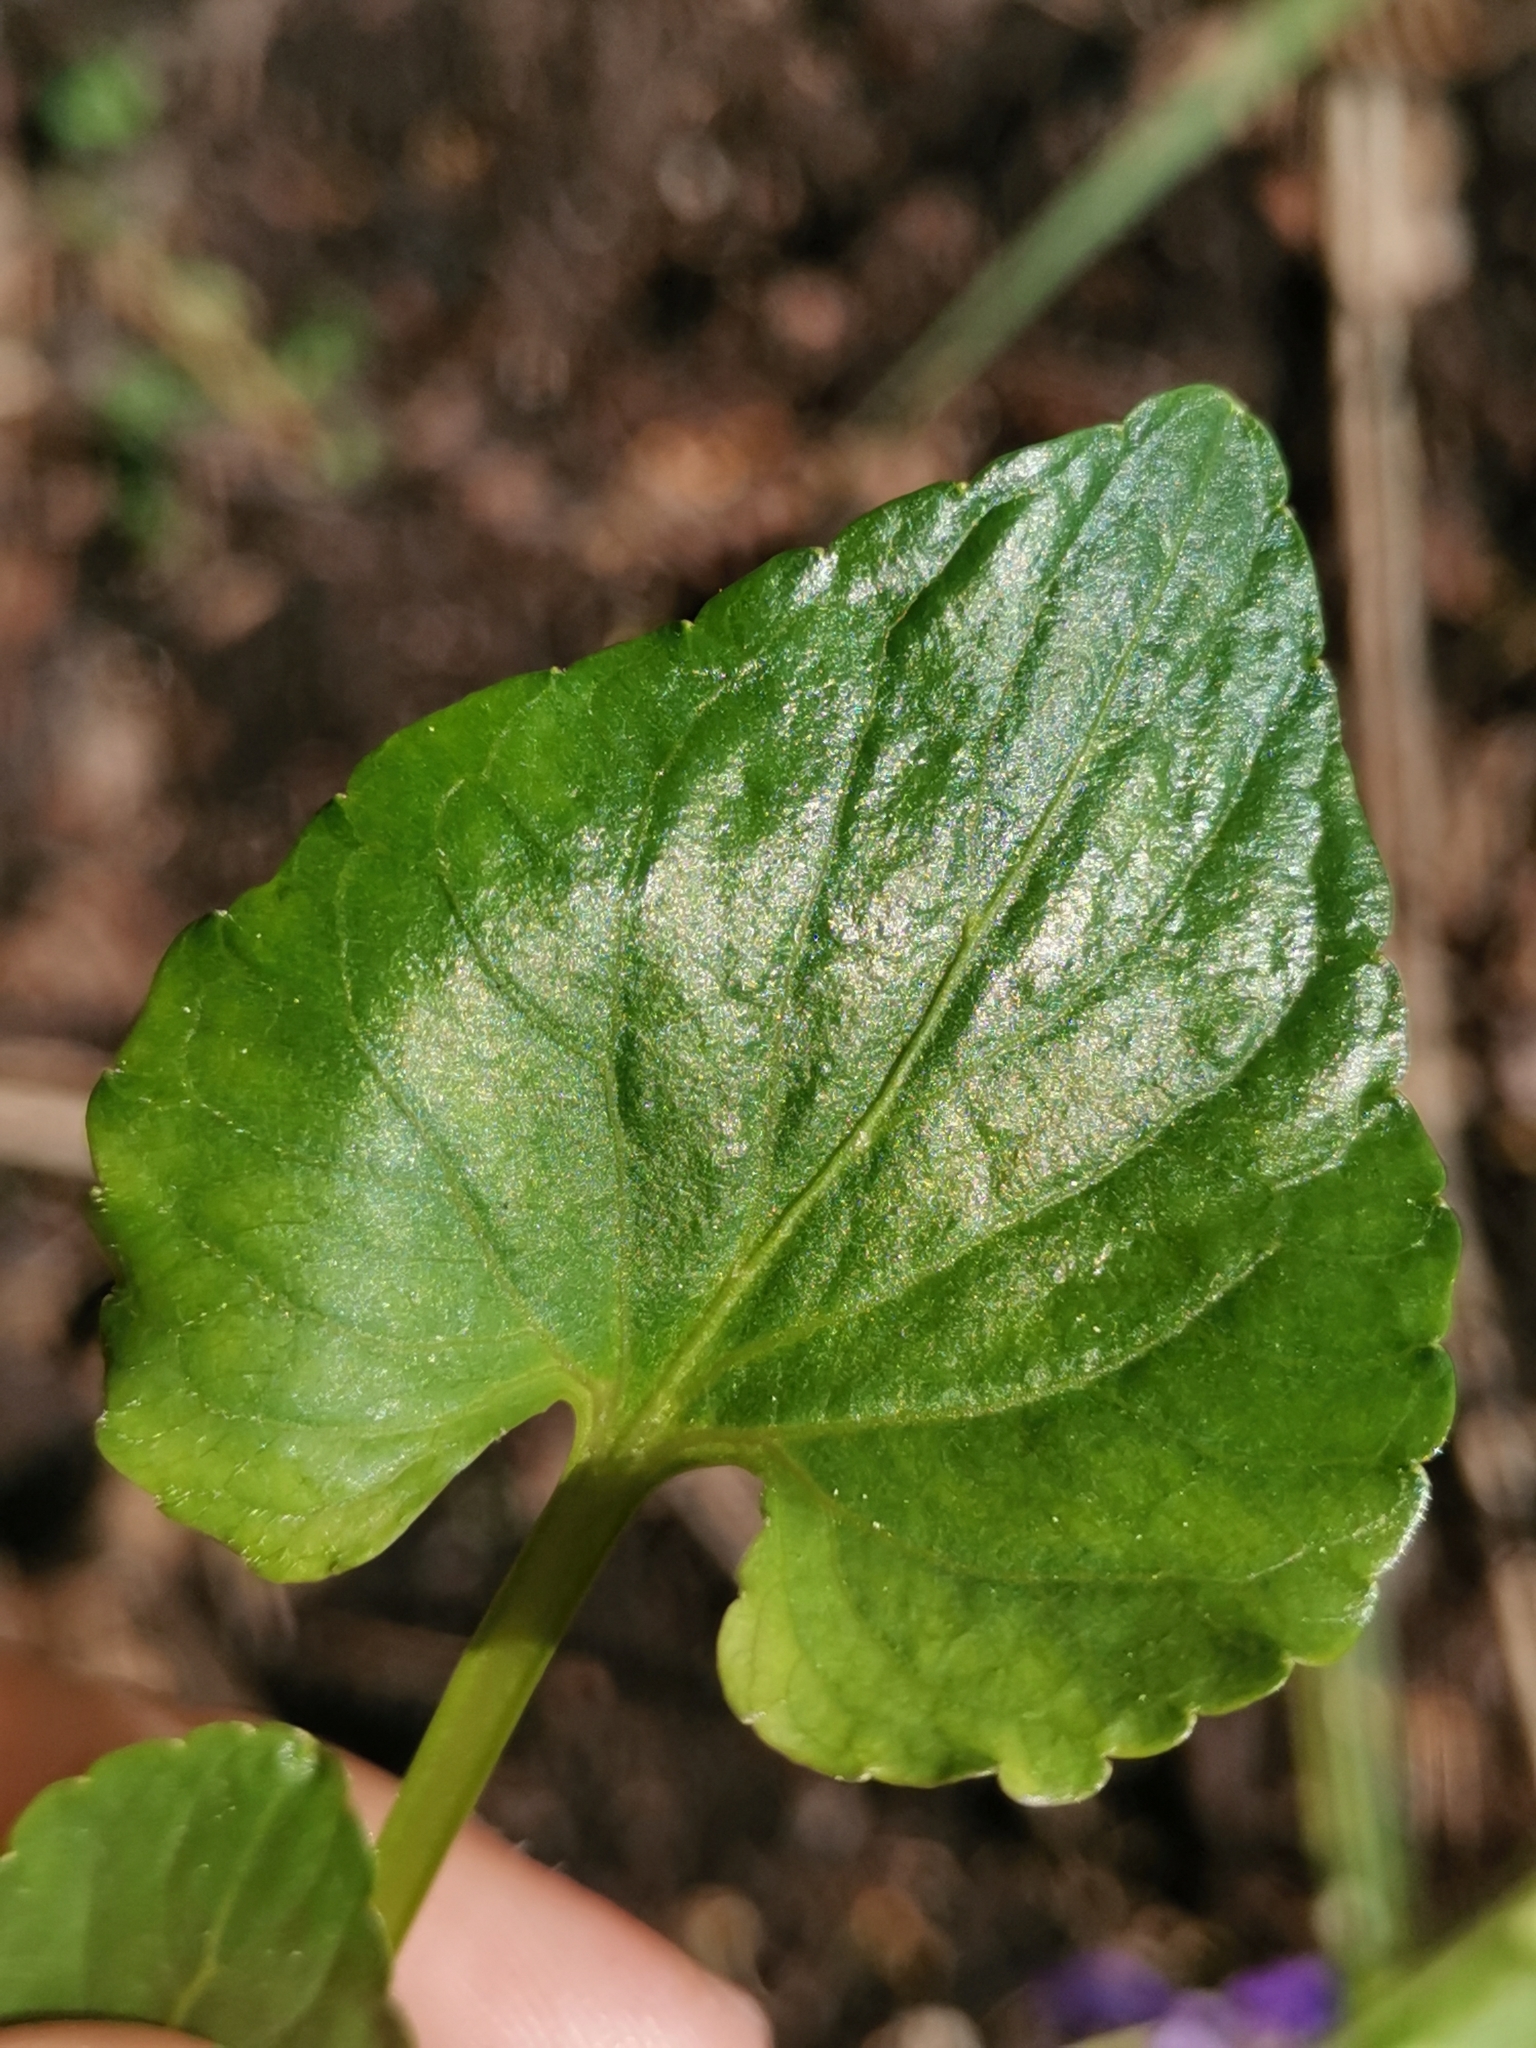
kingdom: Plantae
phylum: Tracheophyta
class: Magnoliopsida
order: Malpighiales
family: Violaceae
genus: Viola
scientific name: Viola uliginosa
